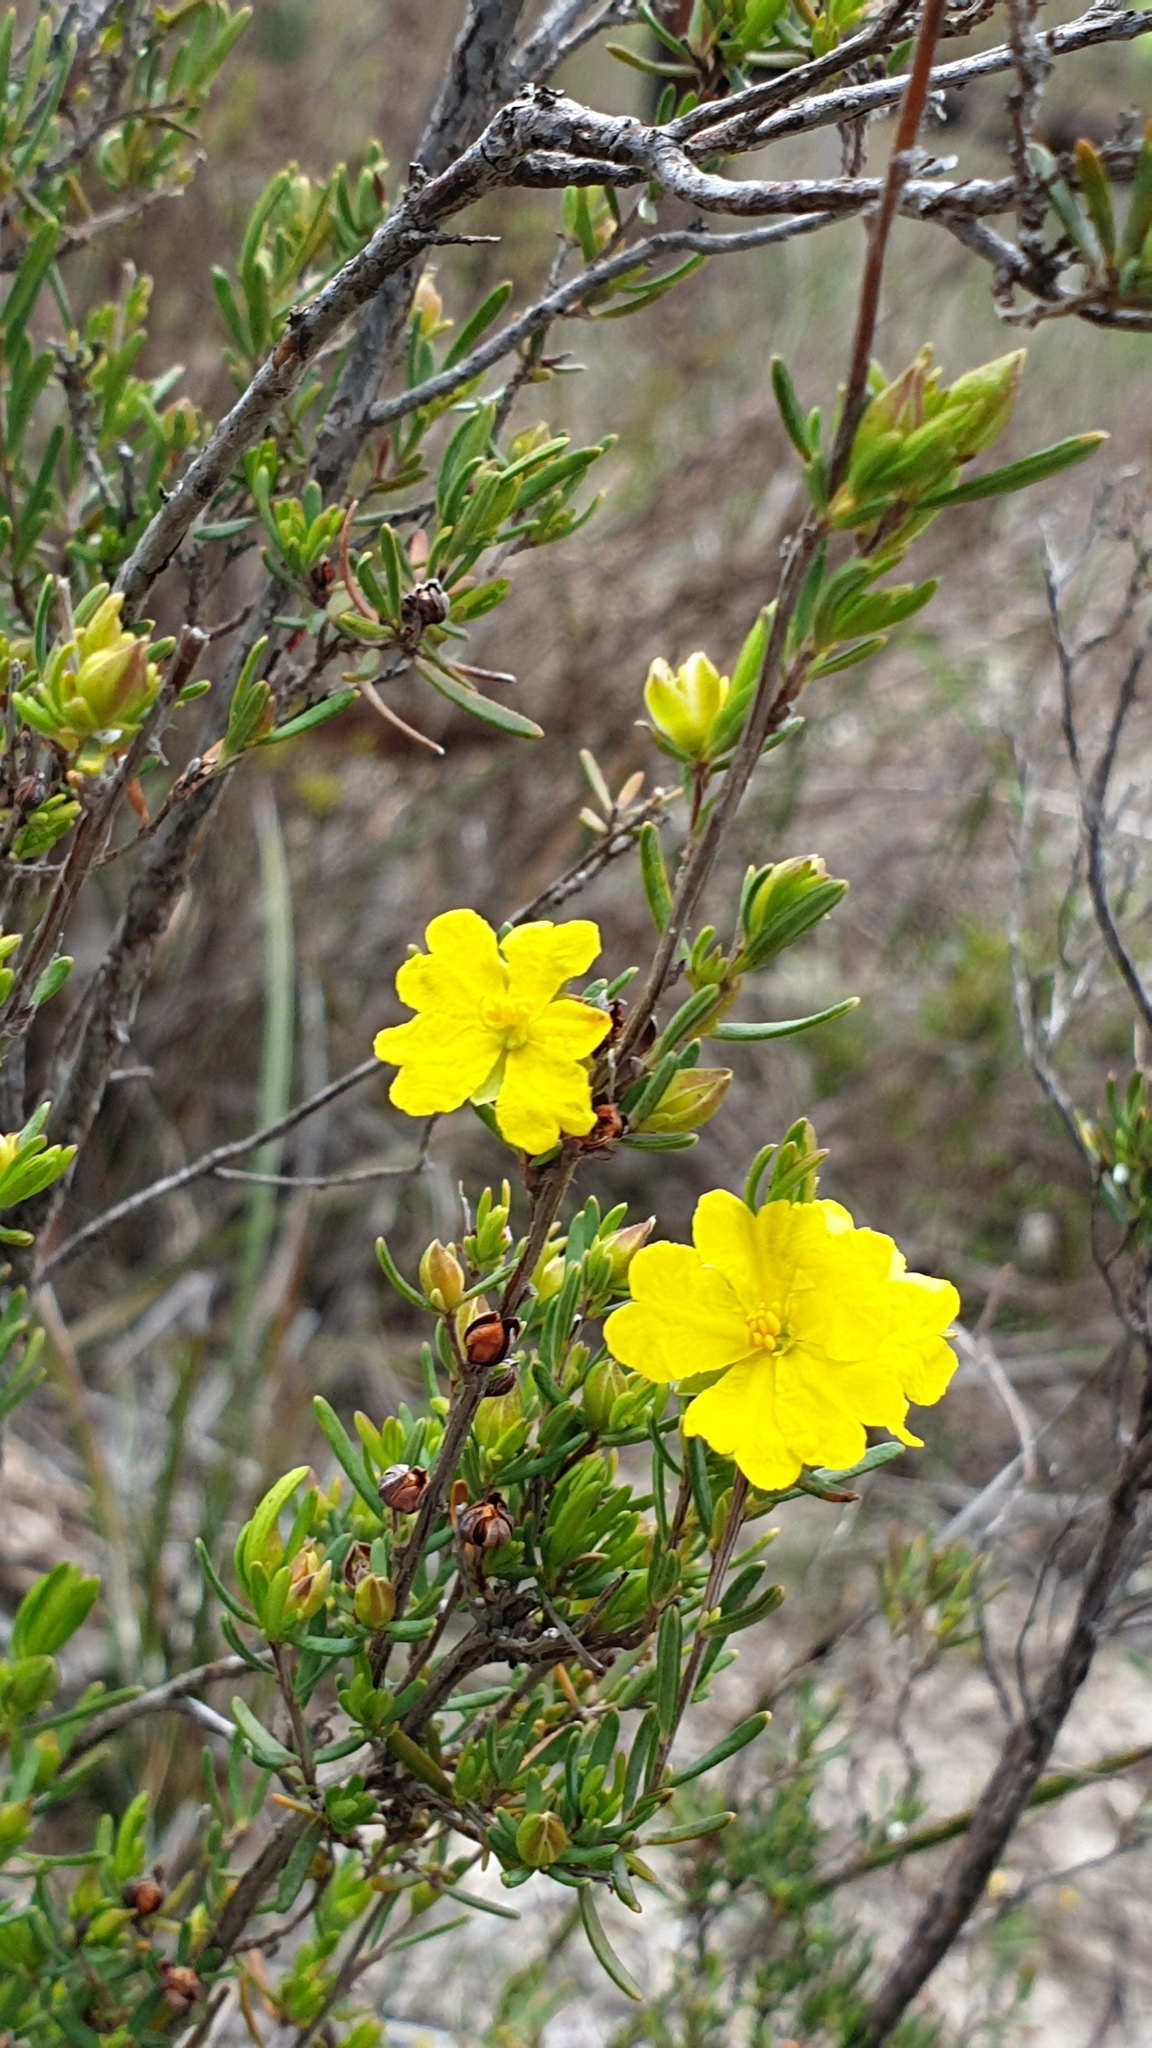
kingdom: Plantae
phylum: Tracheophyta
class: Magnoliopsida
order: Dilleniales
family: Dilleniaceae
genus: Hibbertia
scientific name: Hibbertia riparia
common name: Erect guinea-flower
